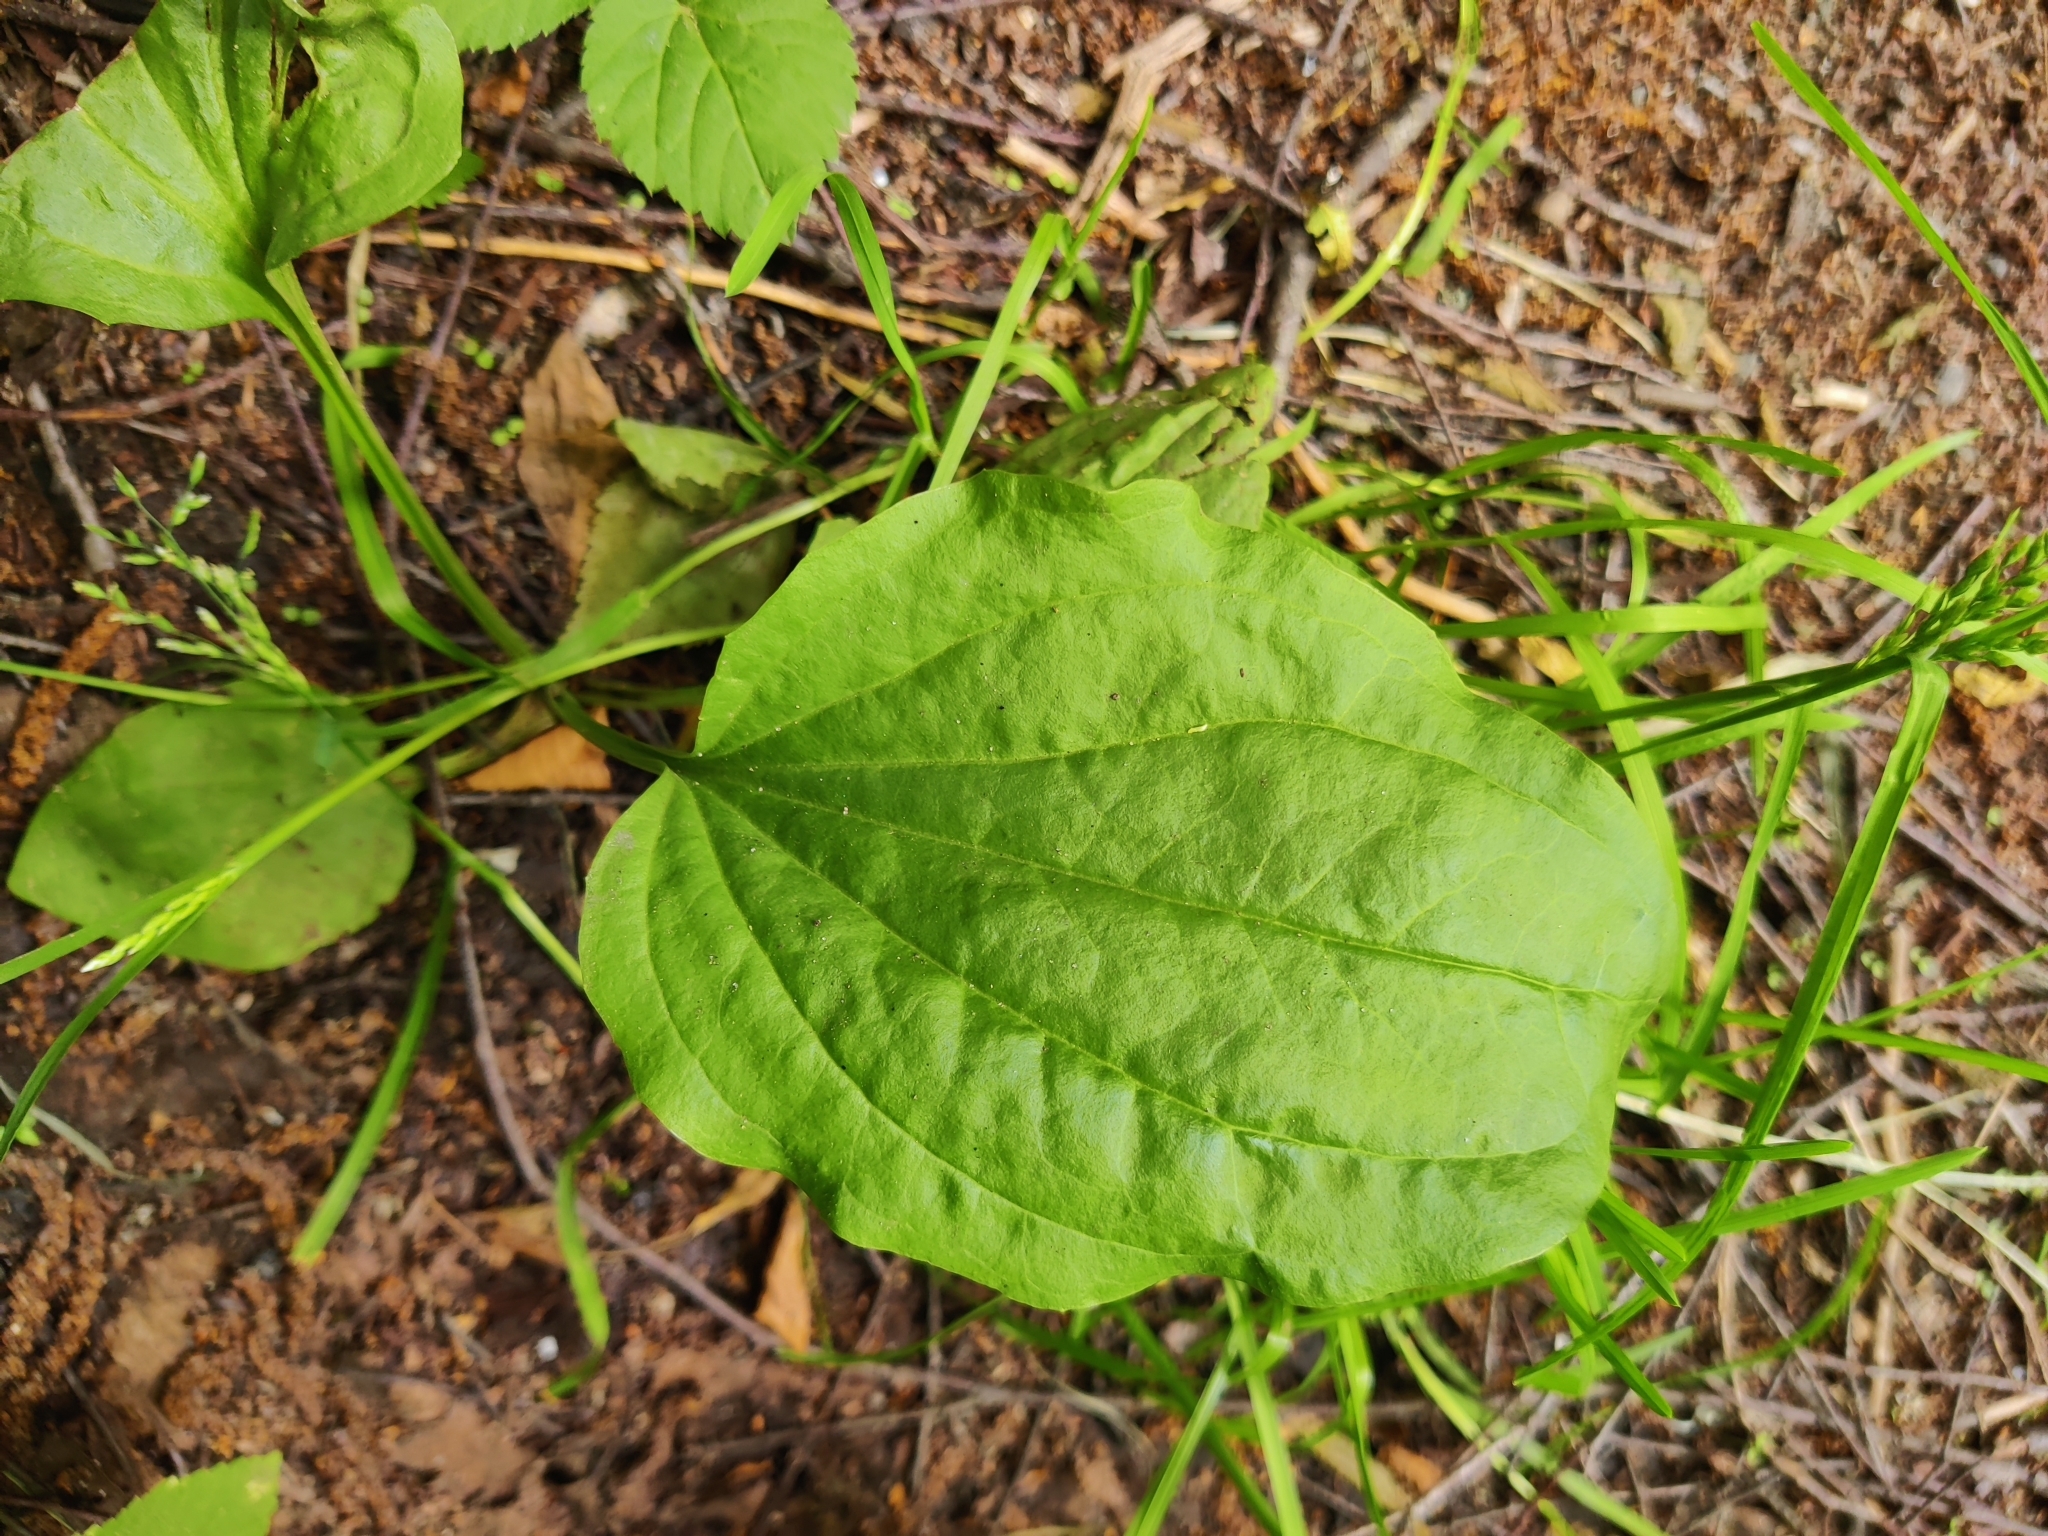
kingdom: Plantae
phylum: Tracheophyta
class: Magnoliopsida
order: Lamiales
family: Plantaginaceae
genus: Plantago
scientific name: Plantago major
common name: Common plantain
